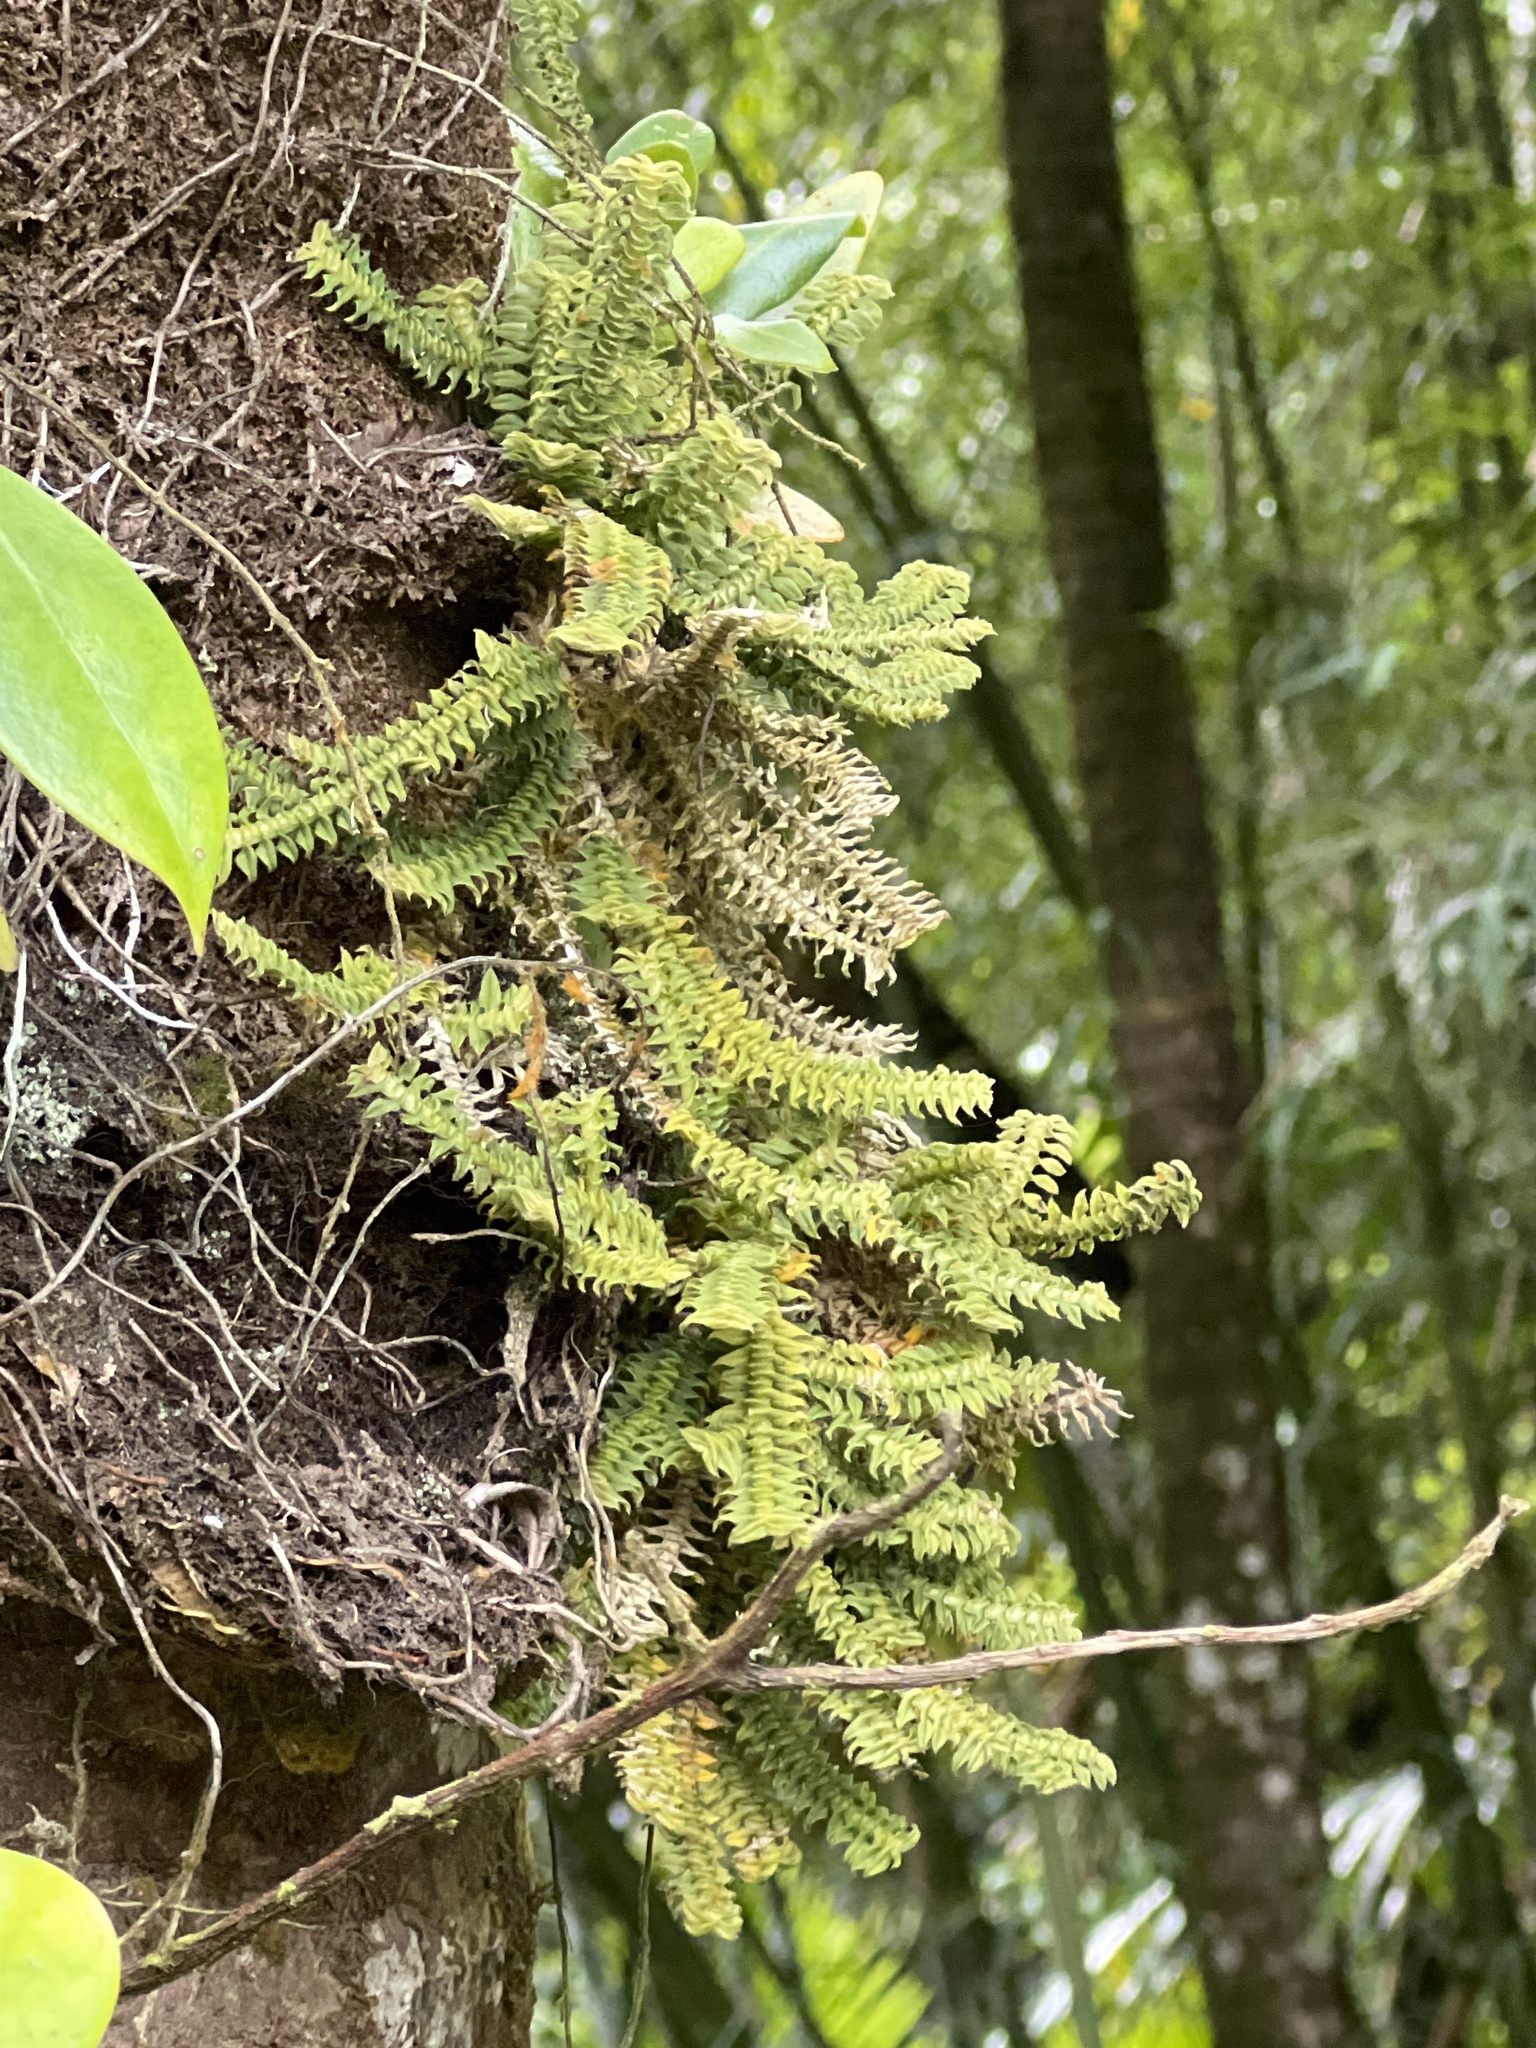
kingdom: Plantae
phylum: Tracheophyta
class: Liliopsida
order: Asparagales
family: Orchidaceae
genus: Dichaea
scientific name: Dichaea hystricina
